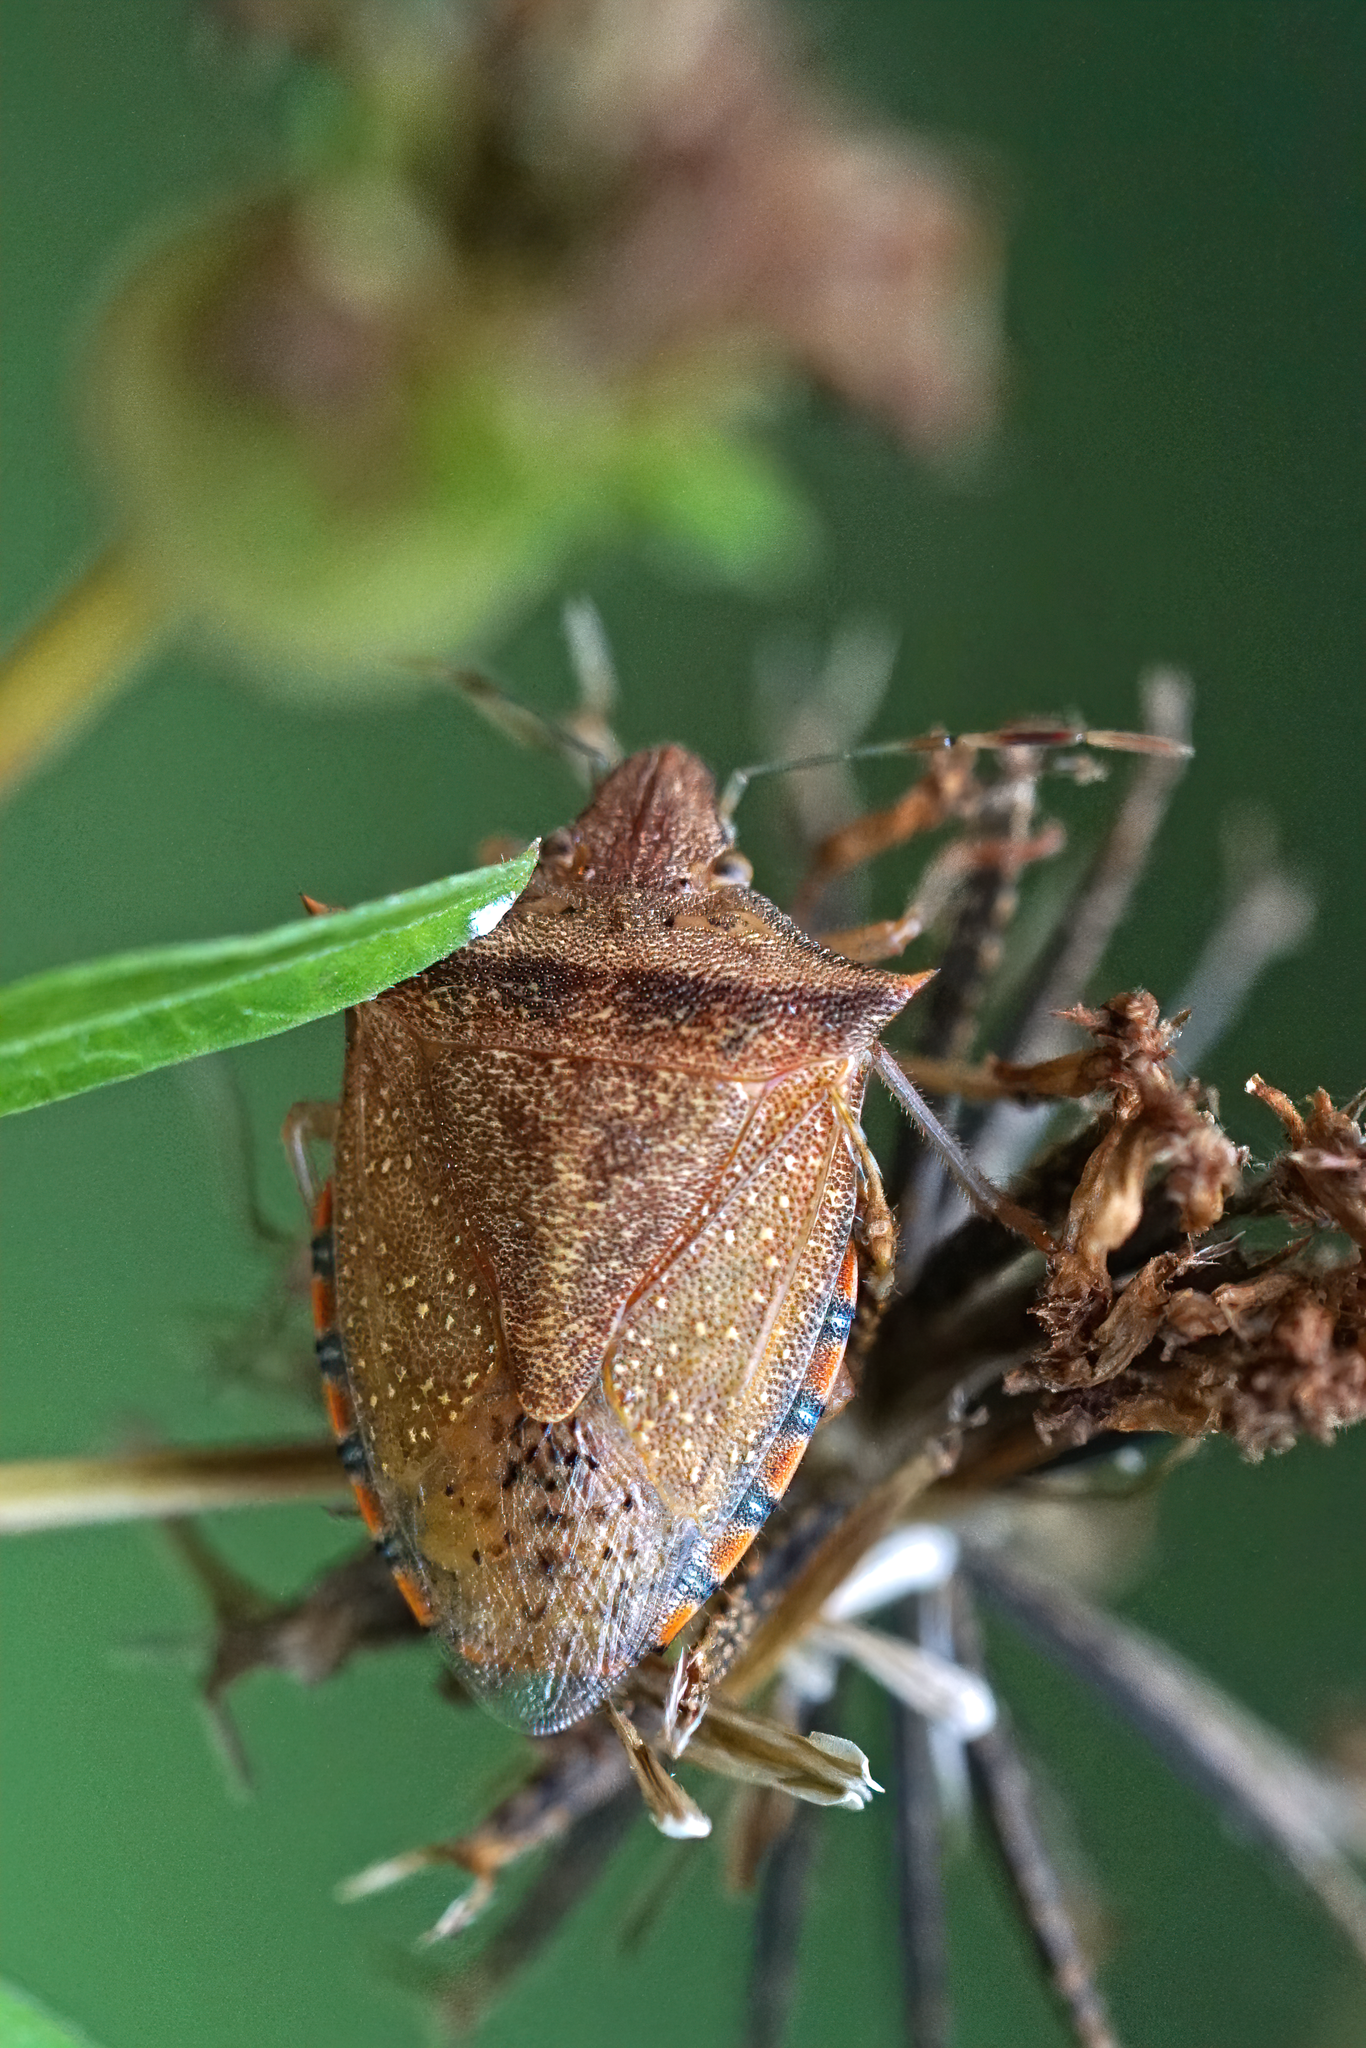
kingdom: Animalia
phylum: Arthropoda
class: Insecta
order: Hemiptera
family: Pentatomidae
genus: Thyanta
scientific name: Thyanta perditor
